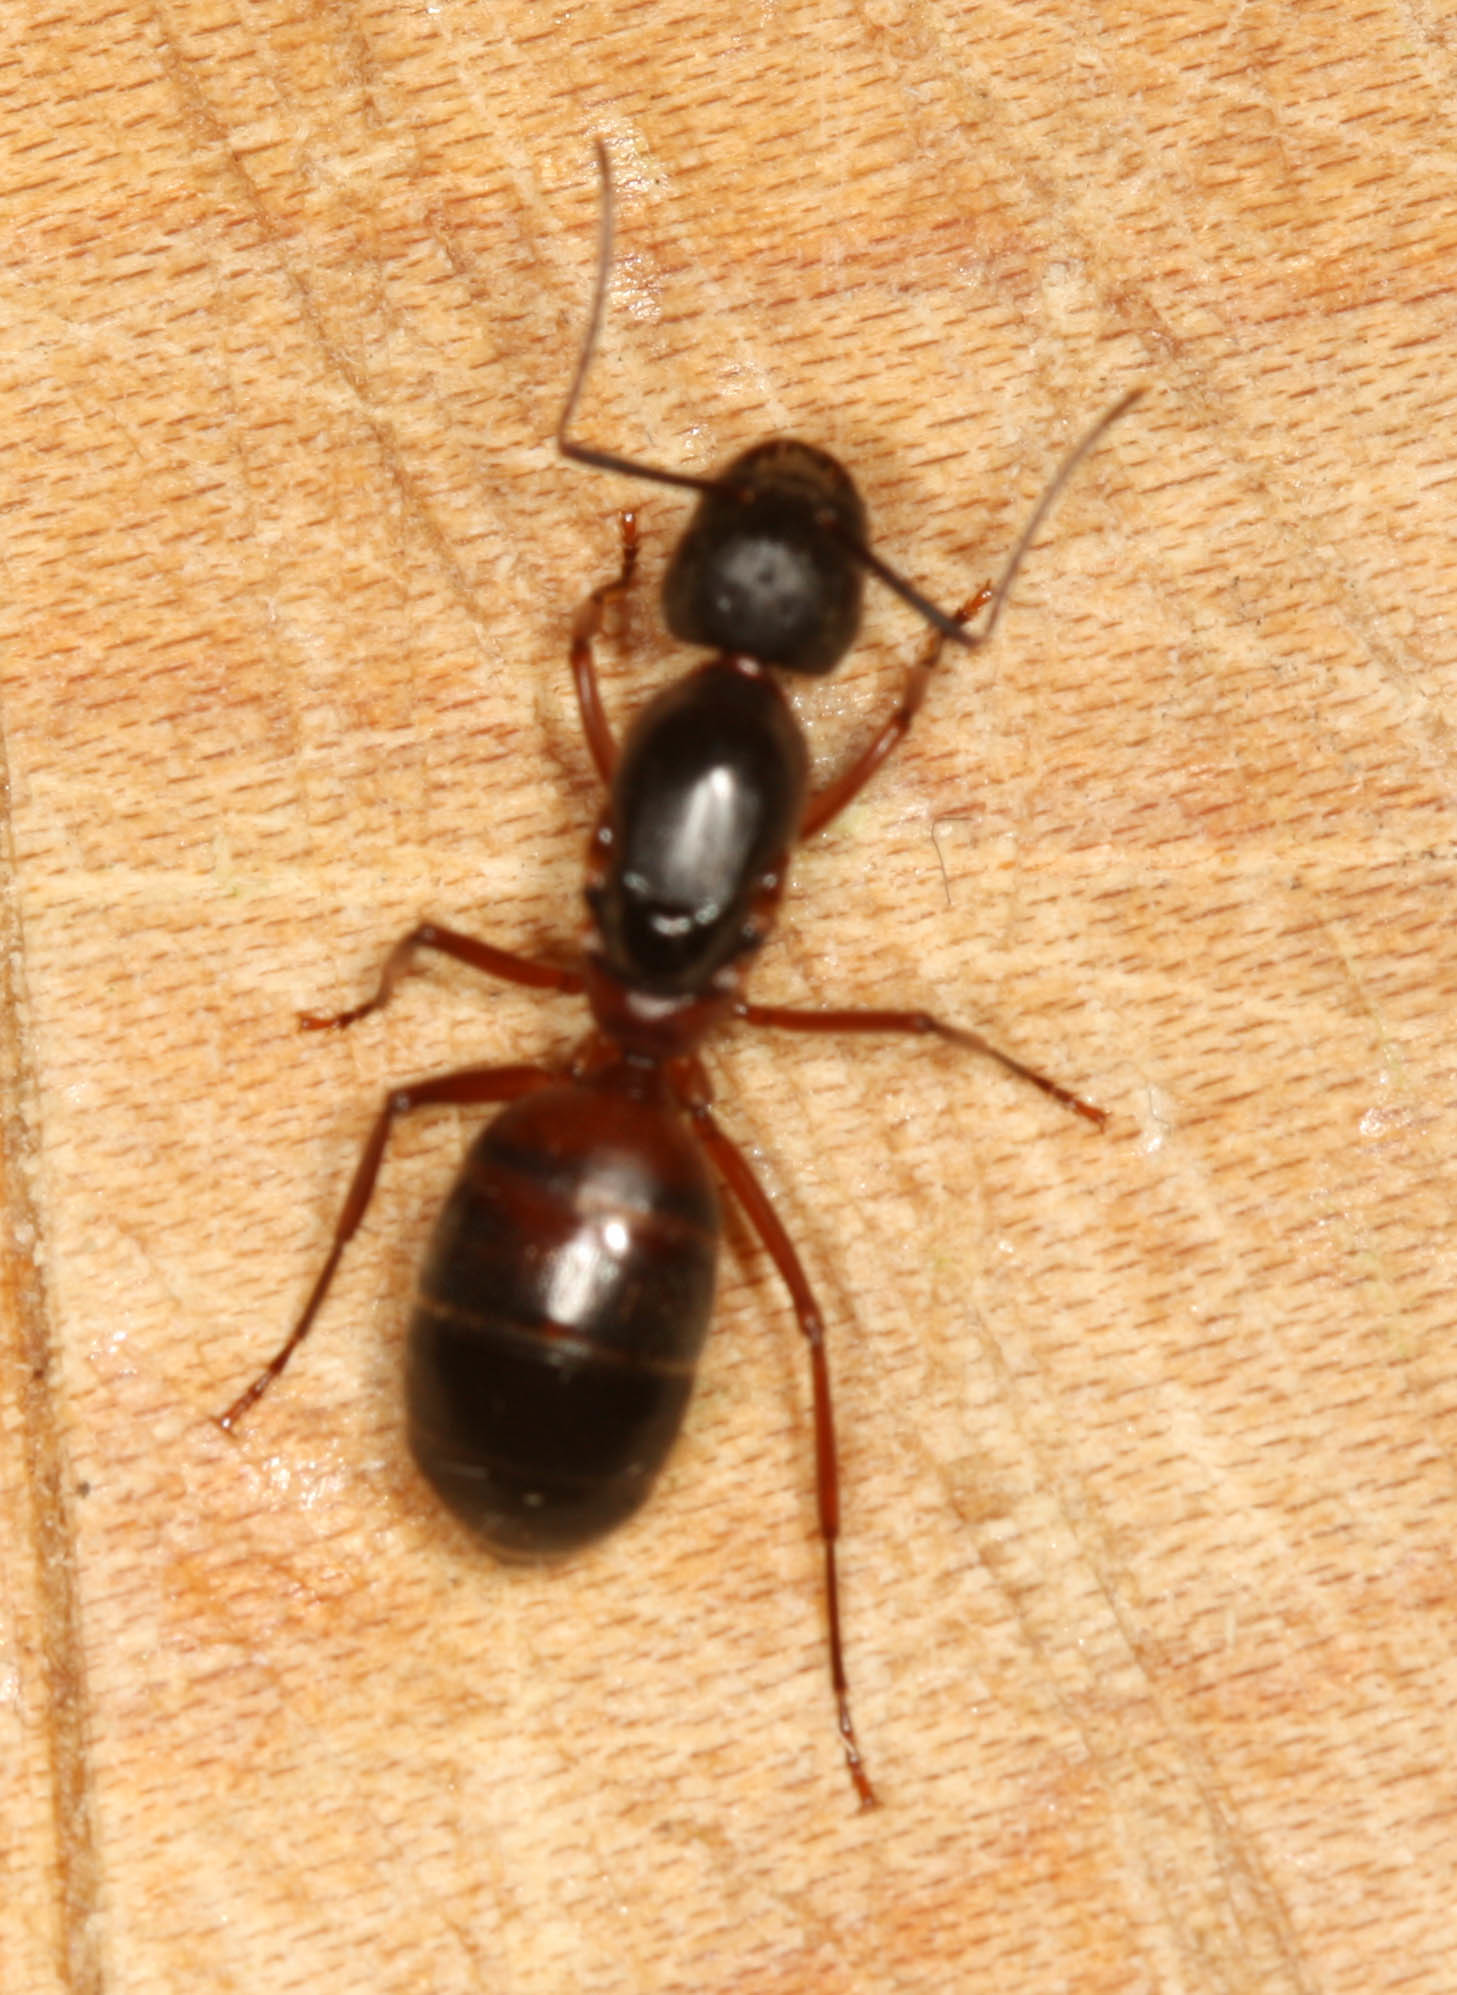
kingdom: Animalia
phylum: Arthropoda
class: Insecta
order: Hymenoptera
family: Formicidae
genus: Camponotus
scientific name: Camponotus vicinus
